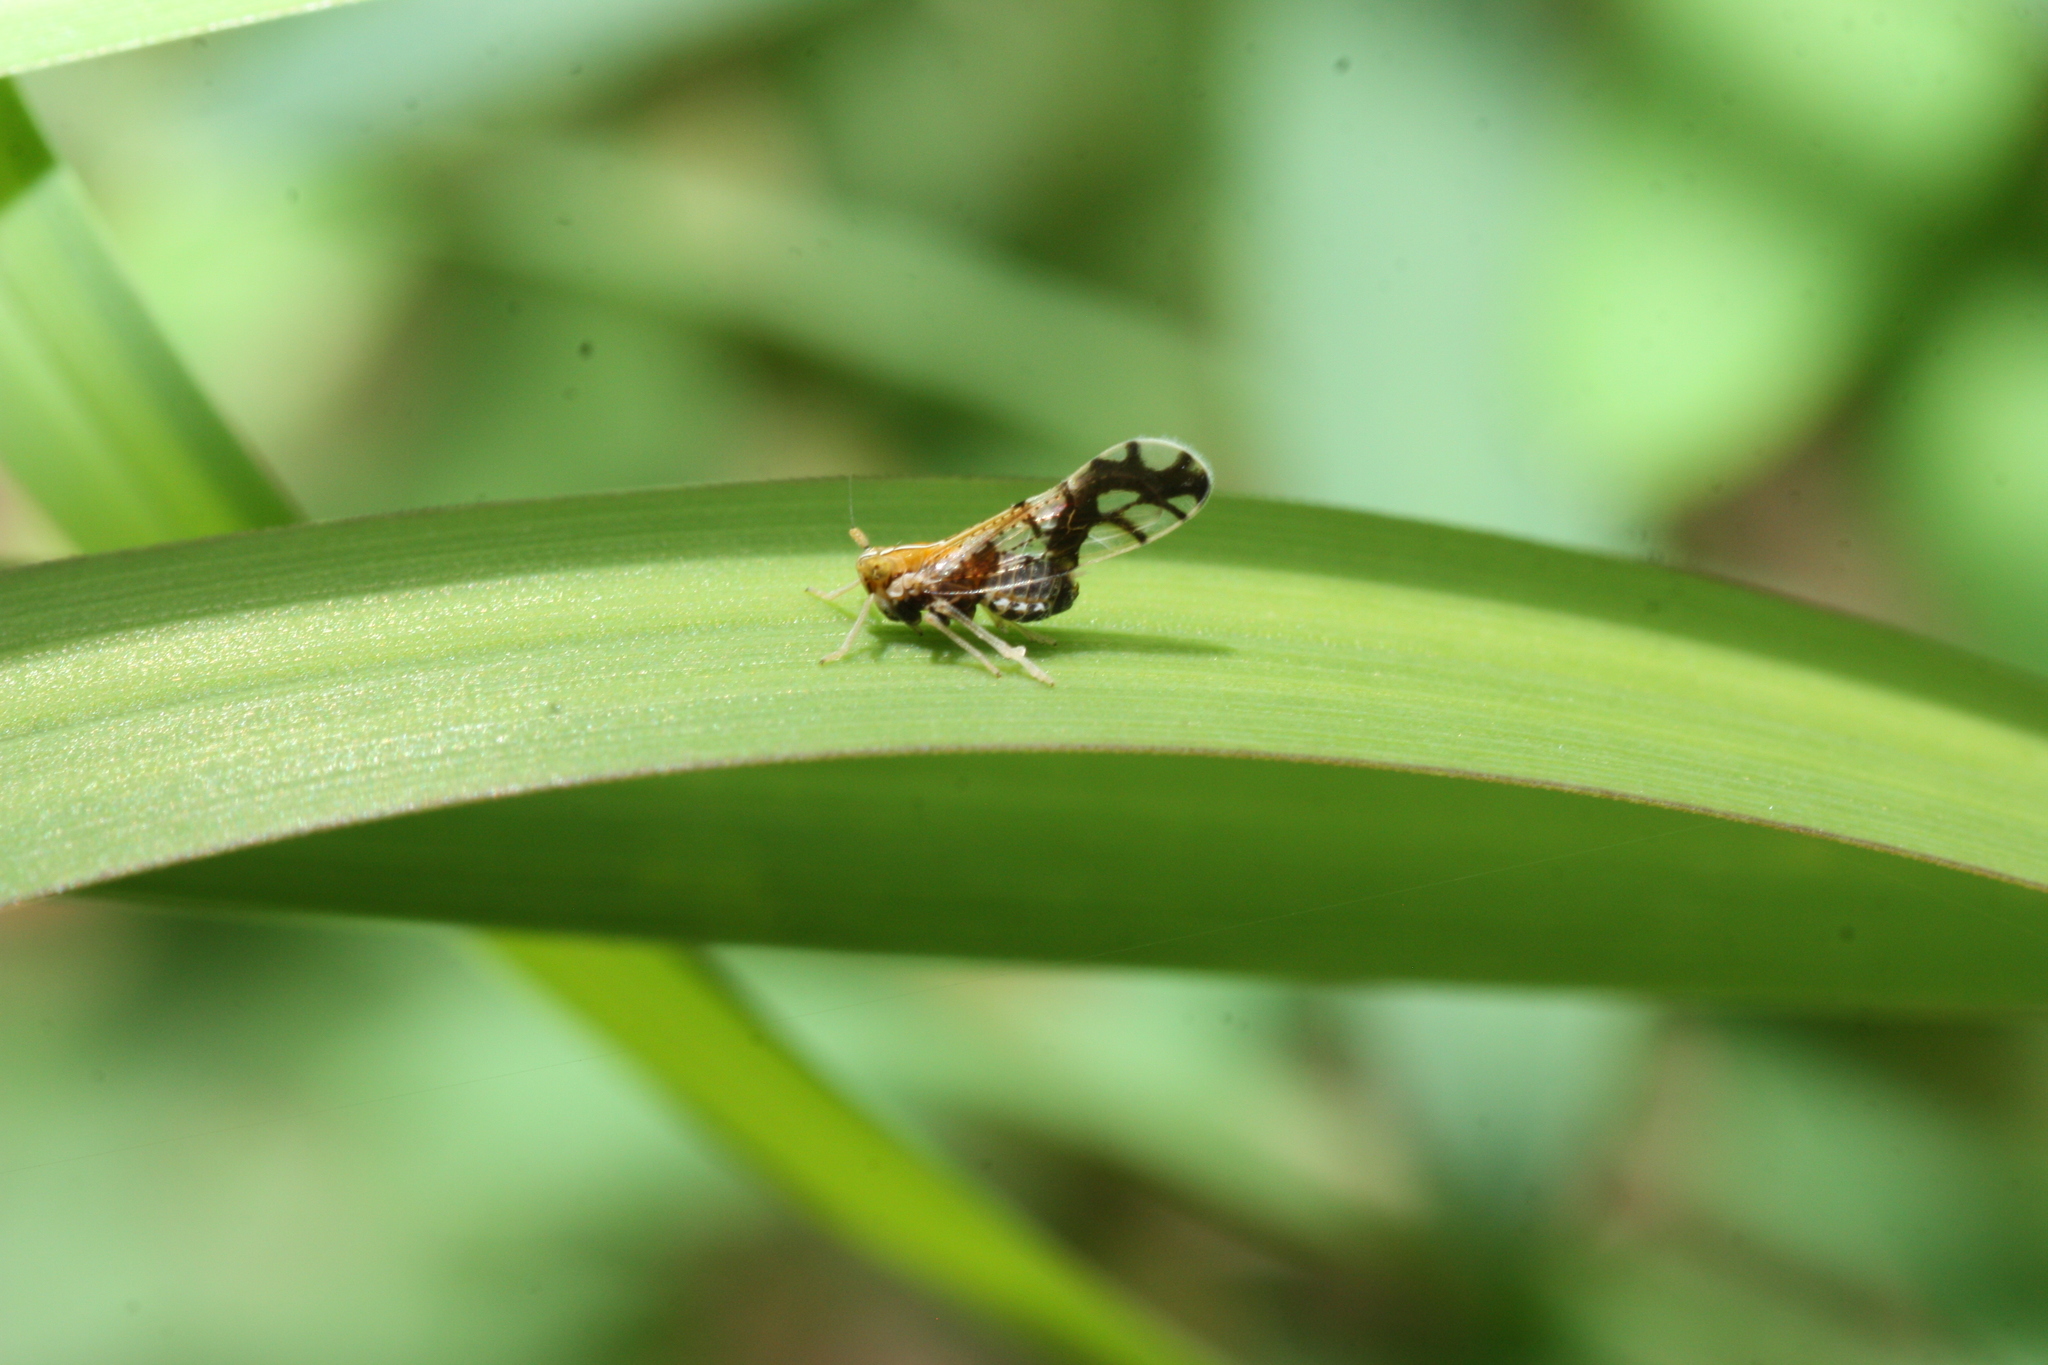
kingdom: Animalia
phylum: Arthropoda
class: Insecta
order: Hemiptera
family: Delphacidae
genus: Liburniella
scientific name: Liburniella ornata
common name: Ornate planthopper
